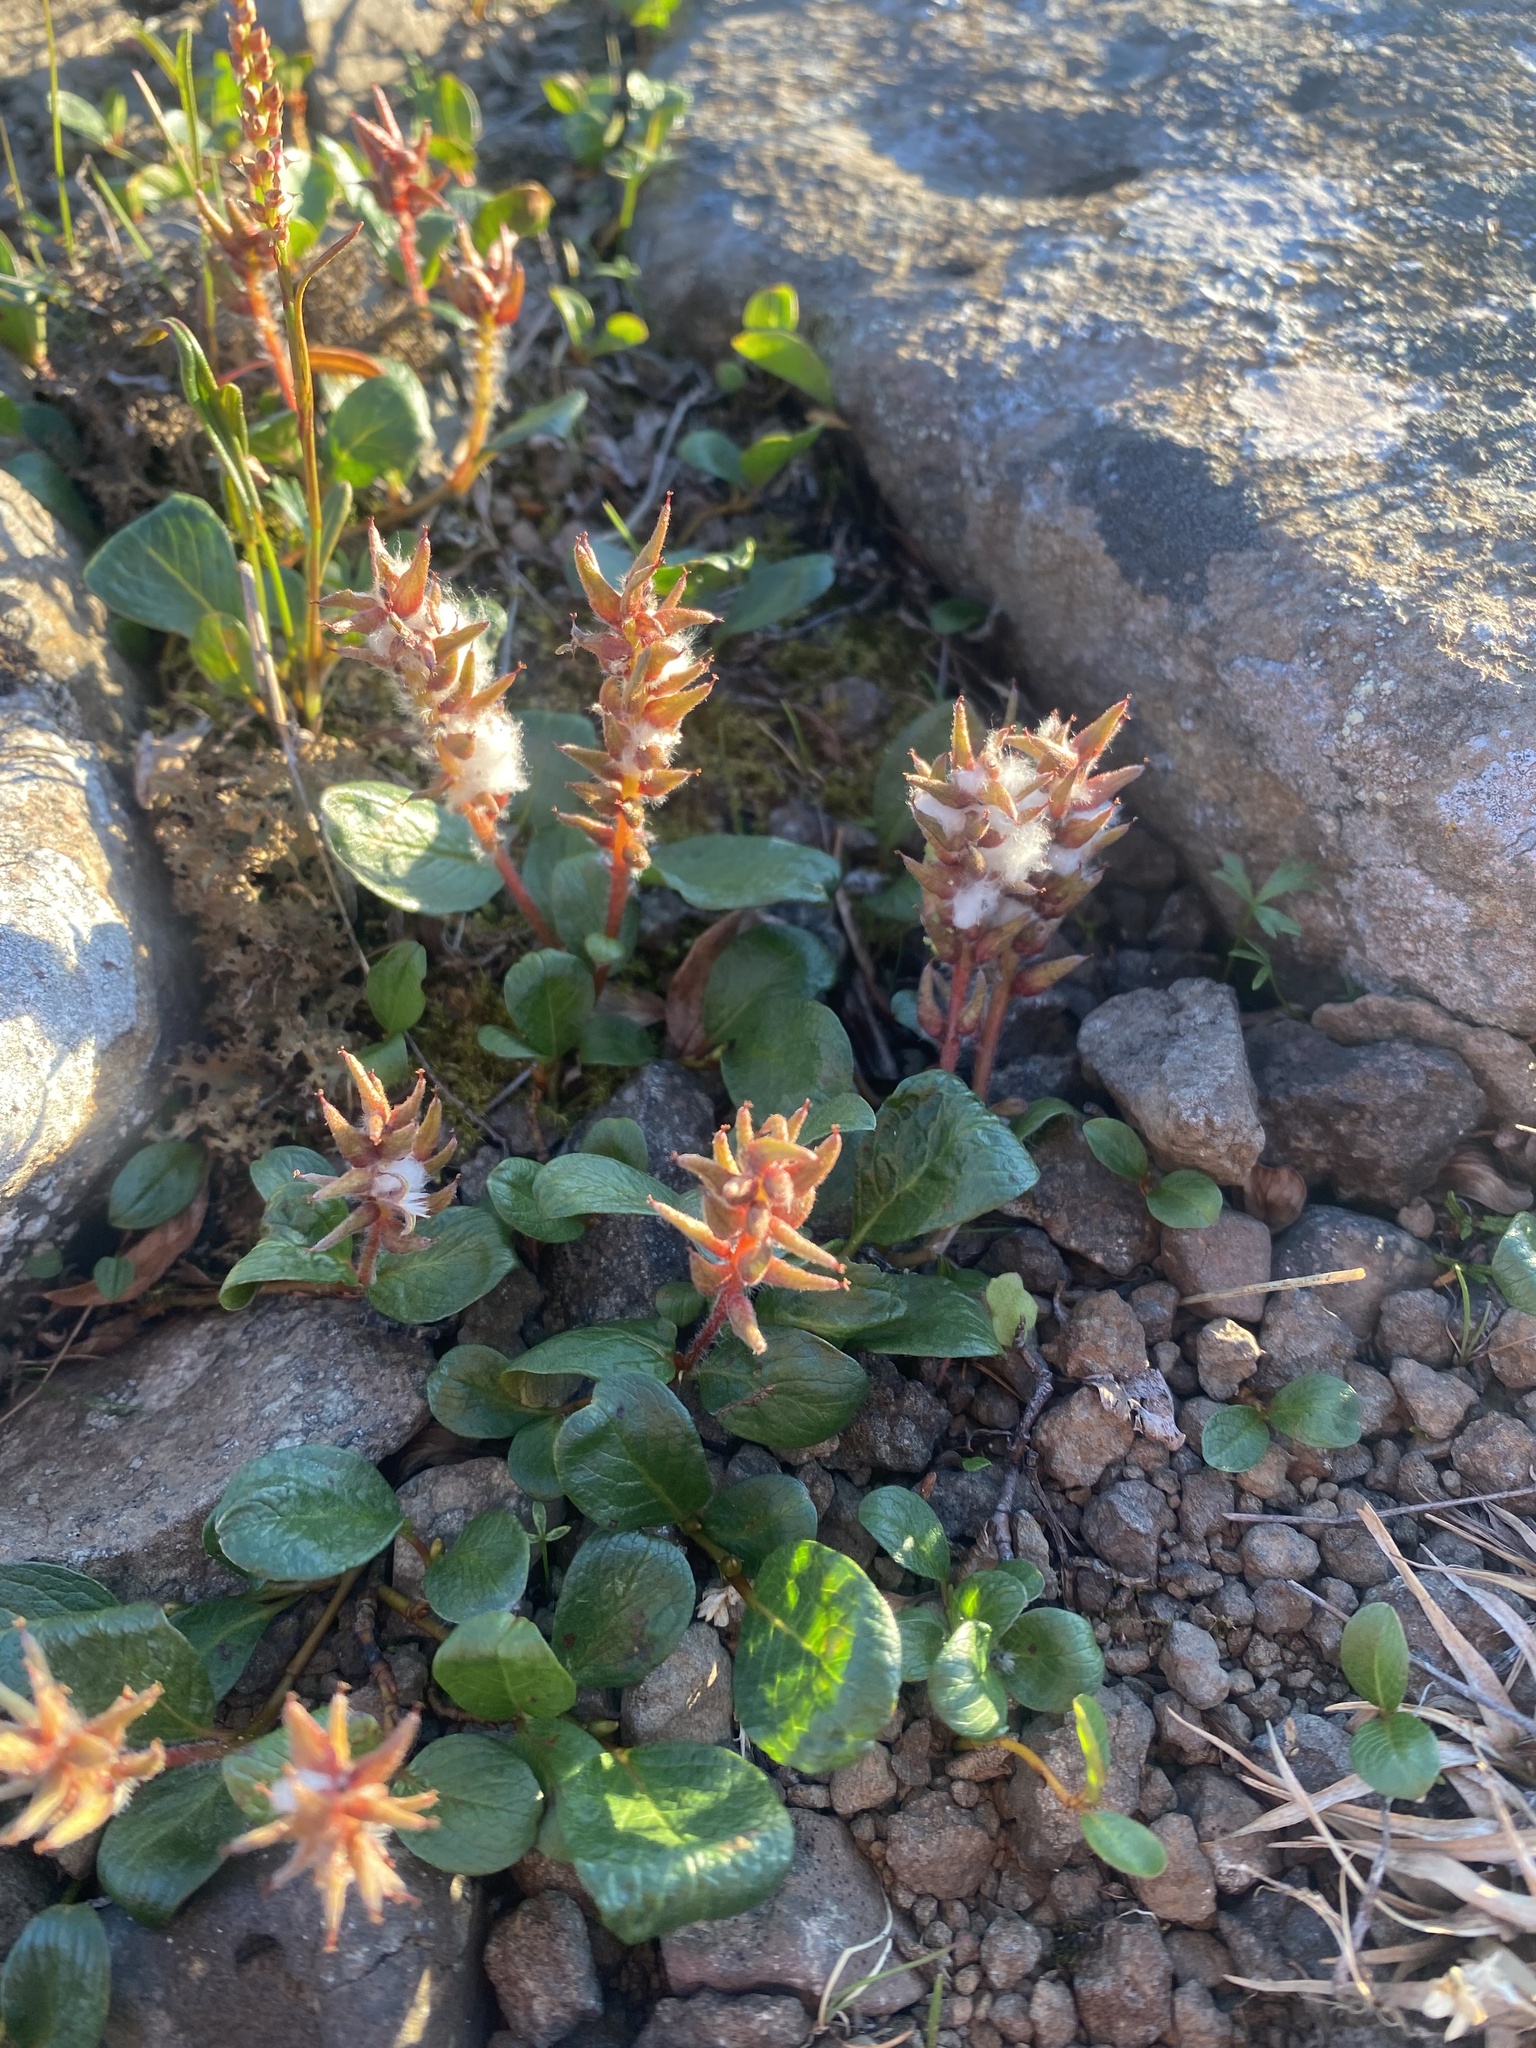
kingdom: Plantae
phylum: Tracheophyta
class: Magnoliopsida
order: Malpighiales
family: Salicaceae
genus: Salix
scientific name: Salix polaris
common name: Polar willow
